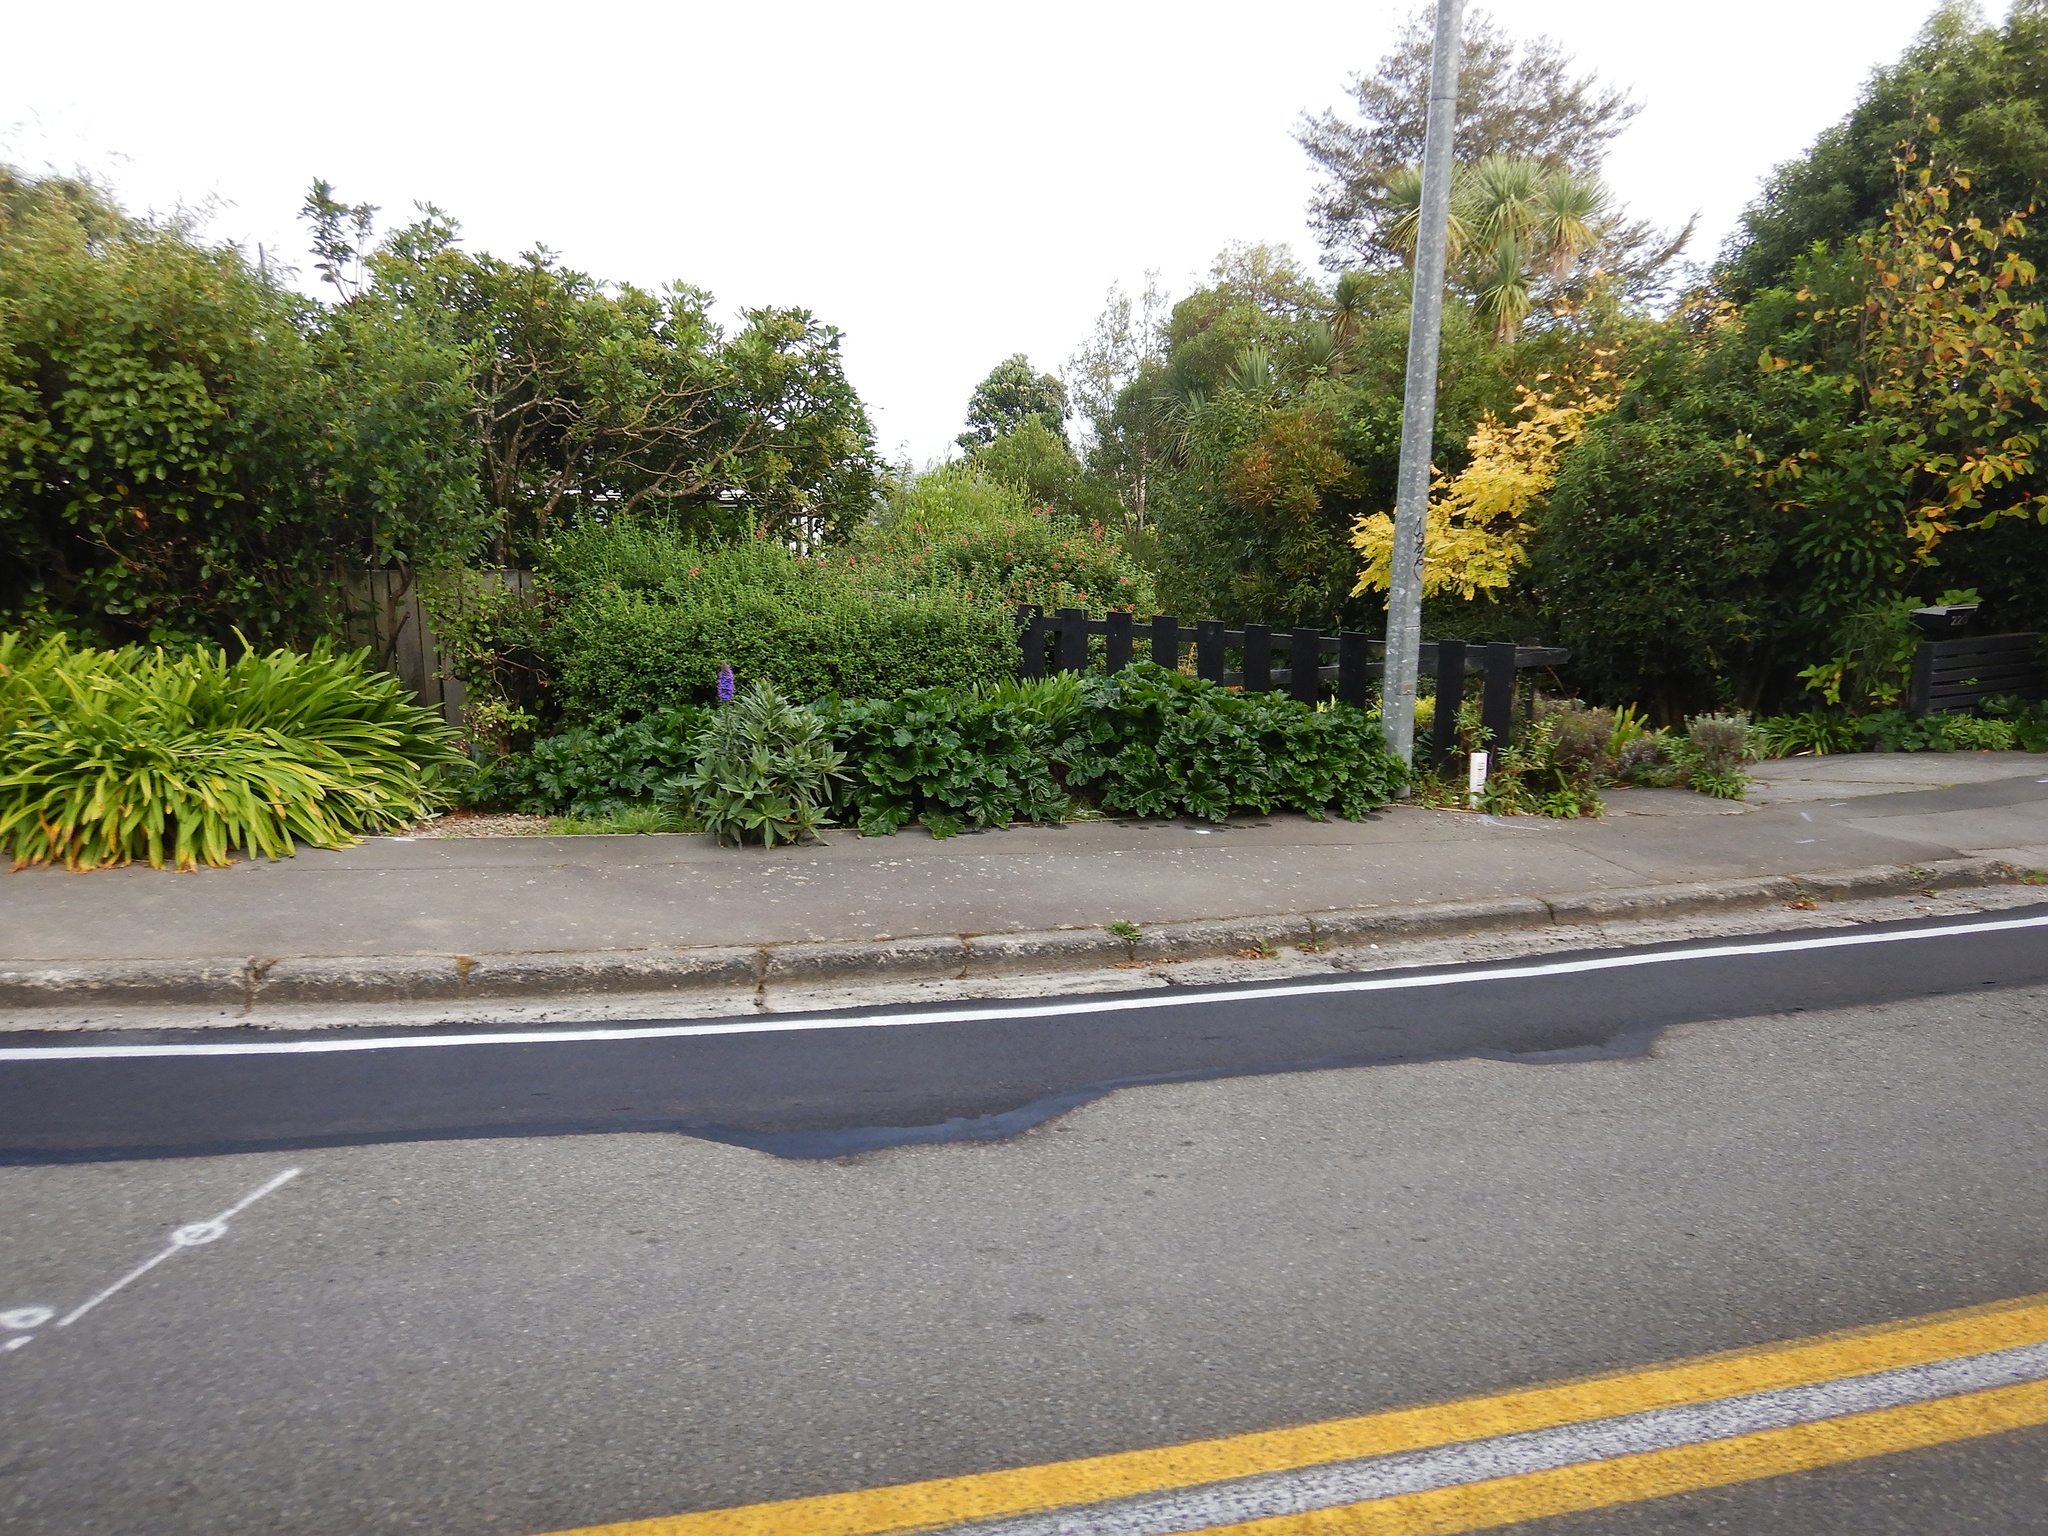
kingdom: Plantae
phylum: Tracheophyta
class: Magnoliopsida
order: Boraginales
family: Boraginaceae
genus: Echium
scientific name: Echium candicans
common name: Pride of madeira
